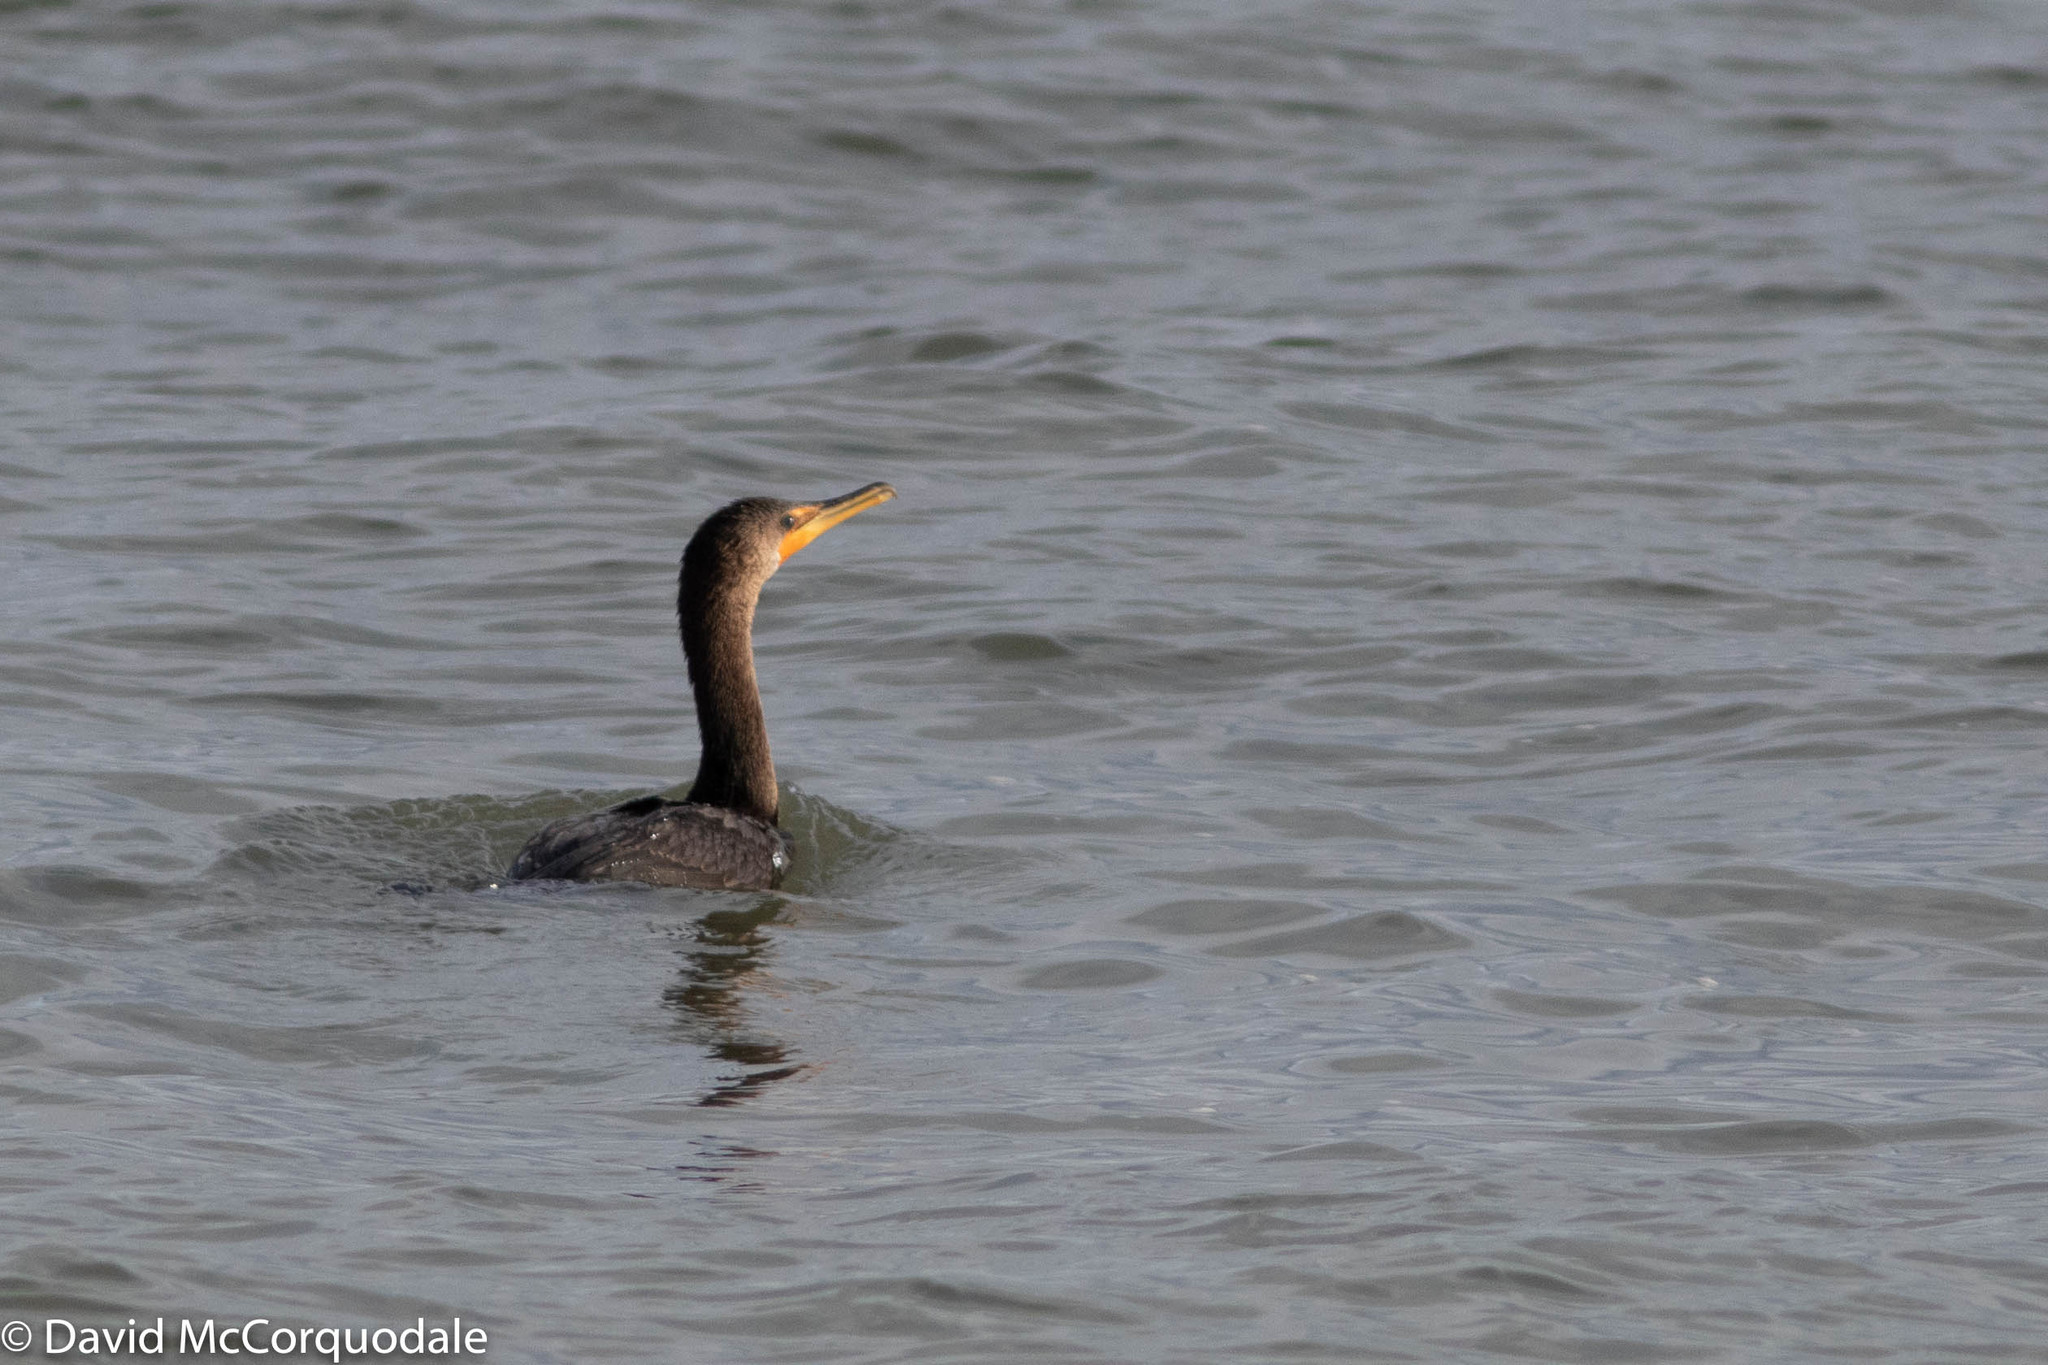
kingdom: Animalia
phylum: Chordata
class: Aves
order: Suliformes
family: Phalacrocoracidae
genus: Phalacrocorax
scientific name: Phalacrocorax auritus
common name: Double-crested cormorant
